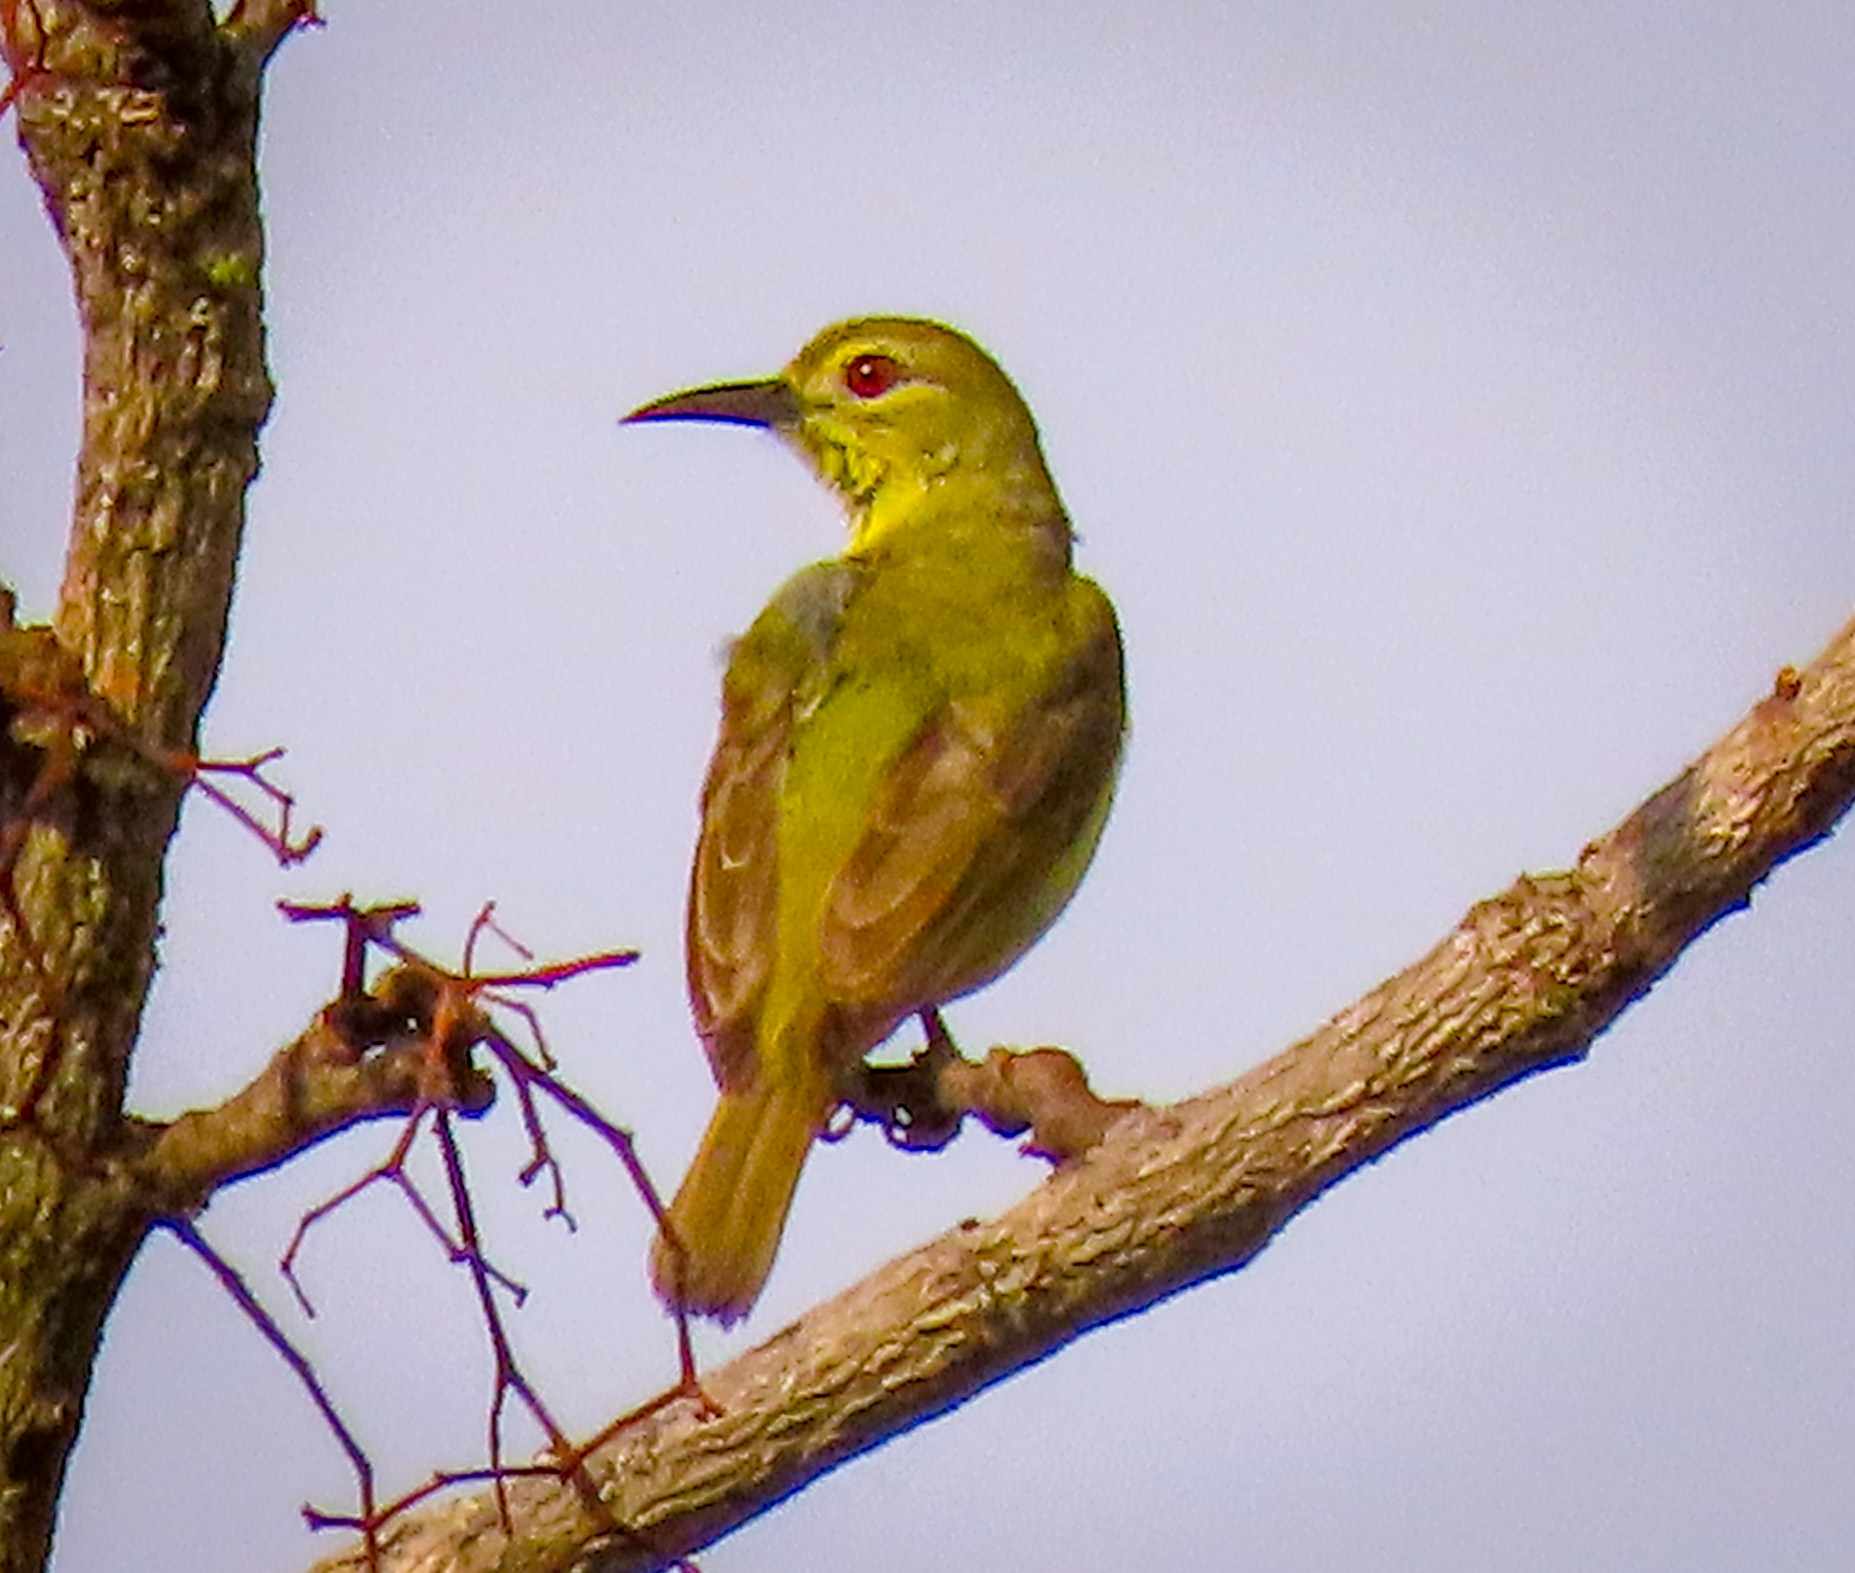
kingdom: Animalia
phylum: Chordata
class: Aves
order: Passeriformes
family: Nectariniidae
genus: Anthreptes
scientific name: Anthreptes malacensis
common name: Brown-throated sunbird
